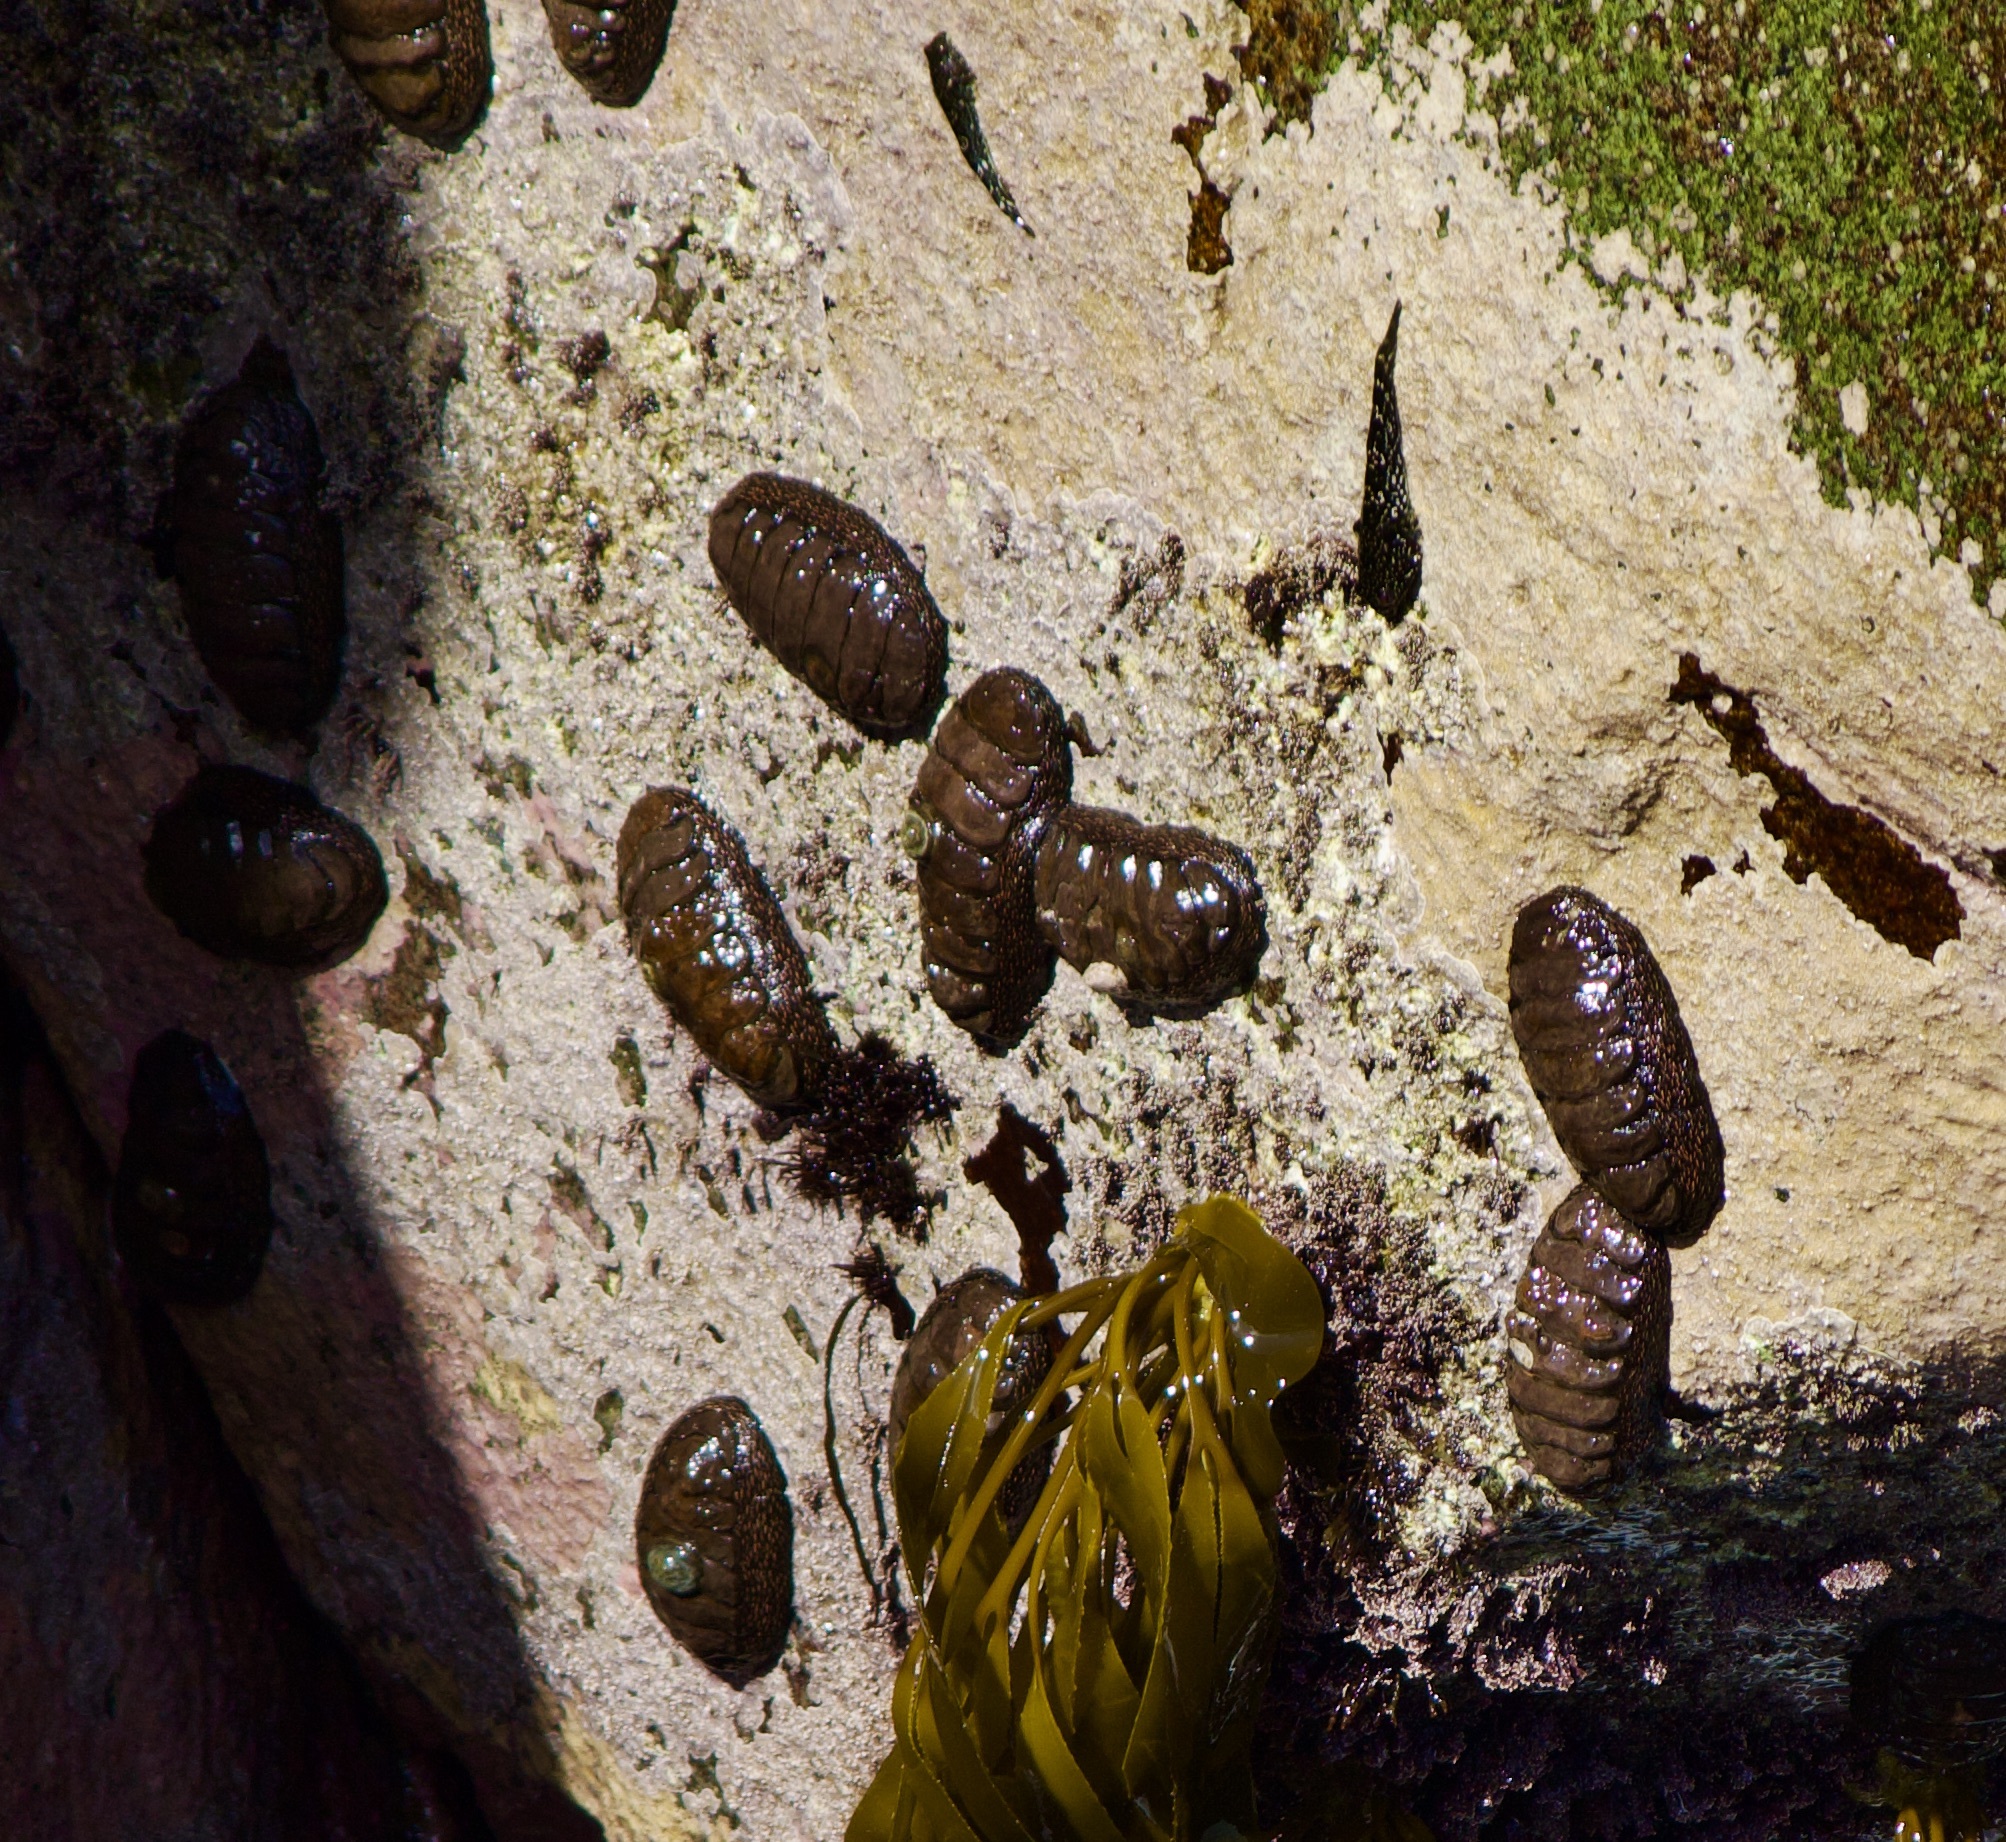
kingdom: Animalia
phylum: Mollusca
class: Polyplacophora
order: Chitonida
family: Chitonidae
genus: Enoplochiton
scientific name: Enoplochiton niger
